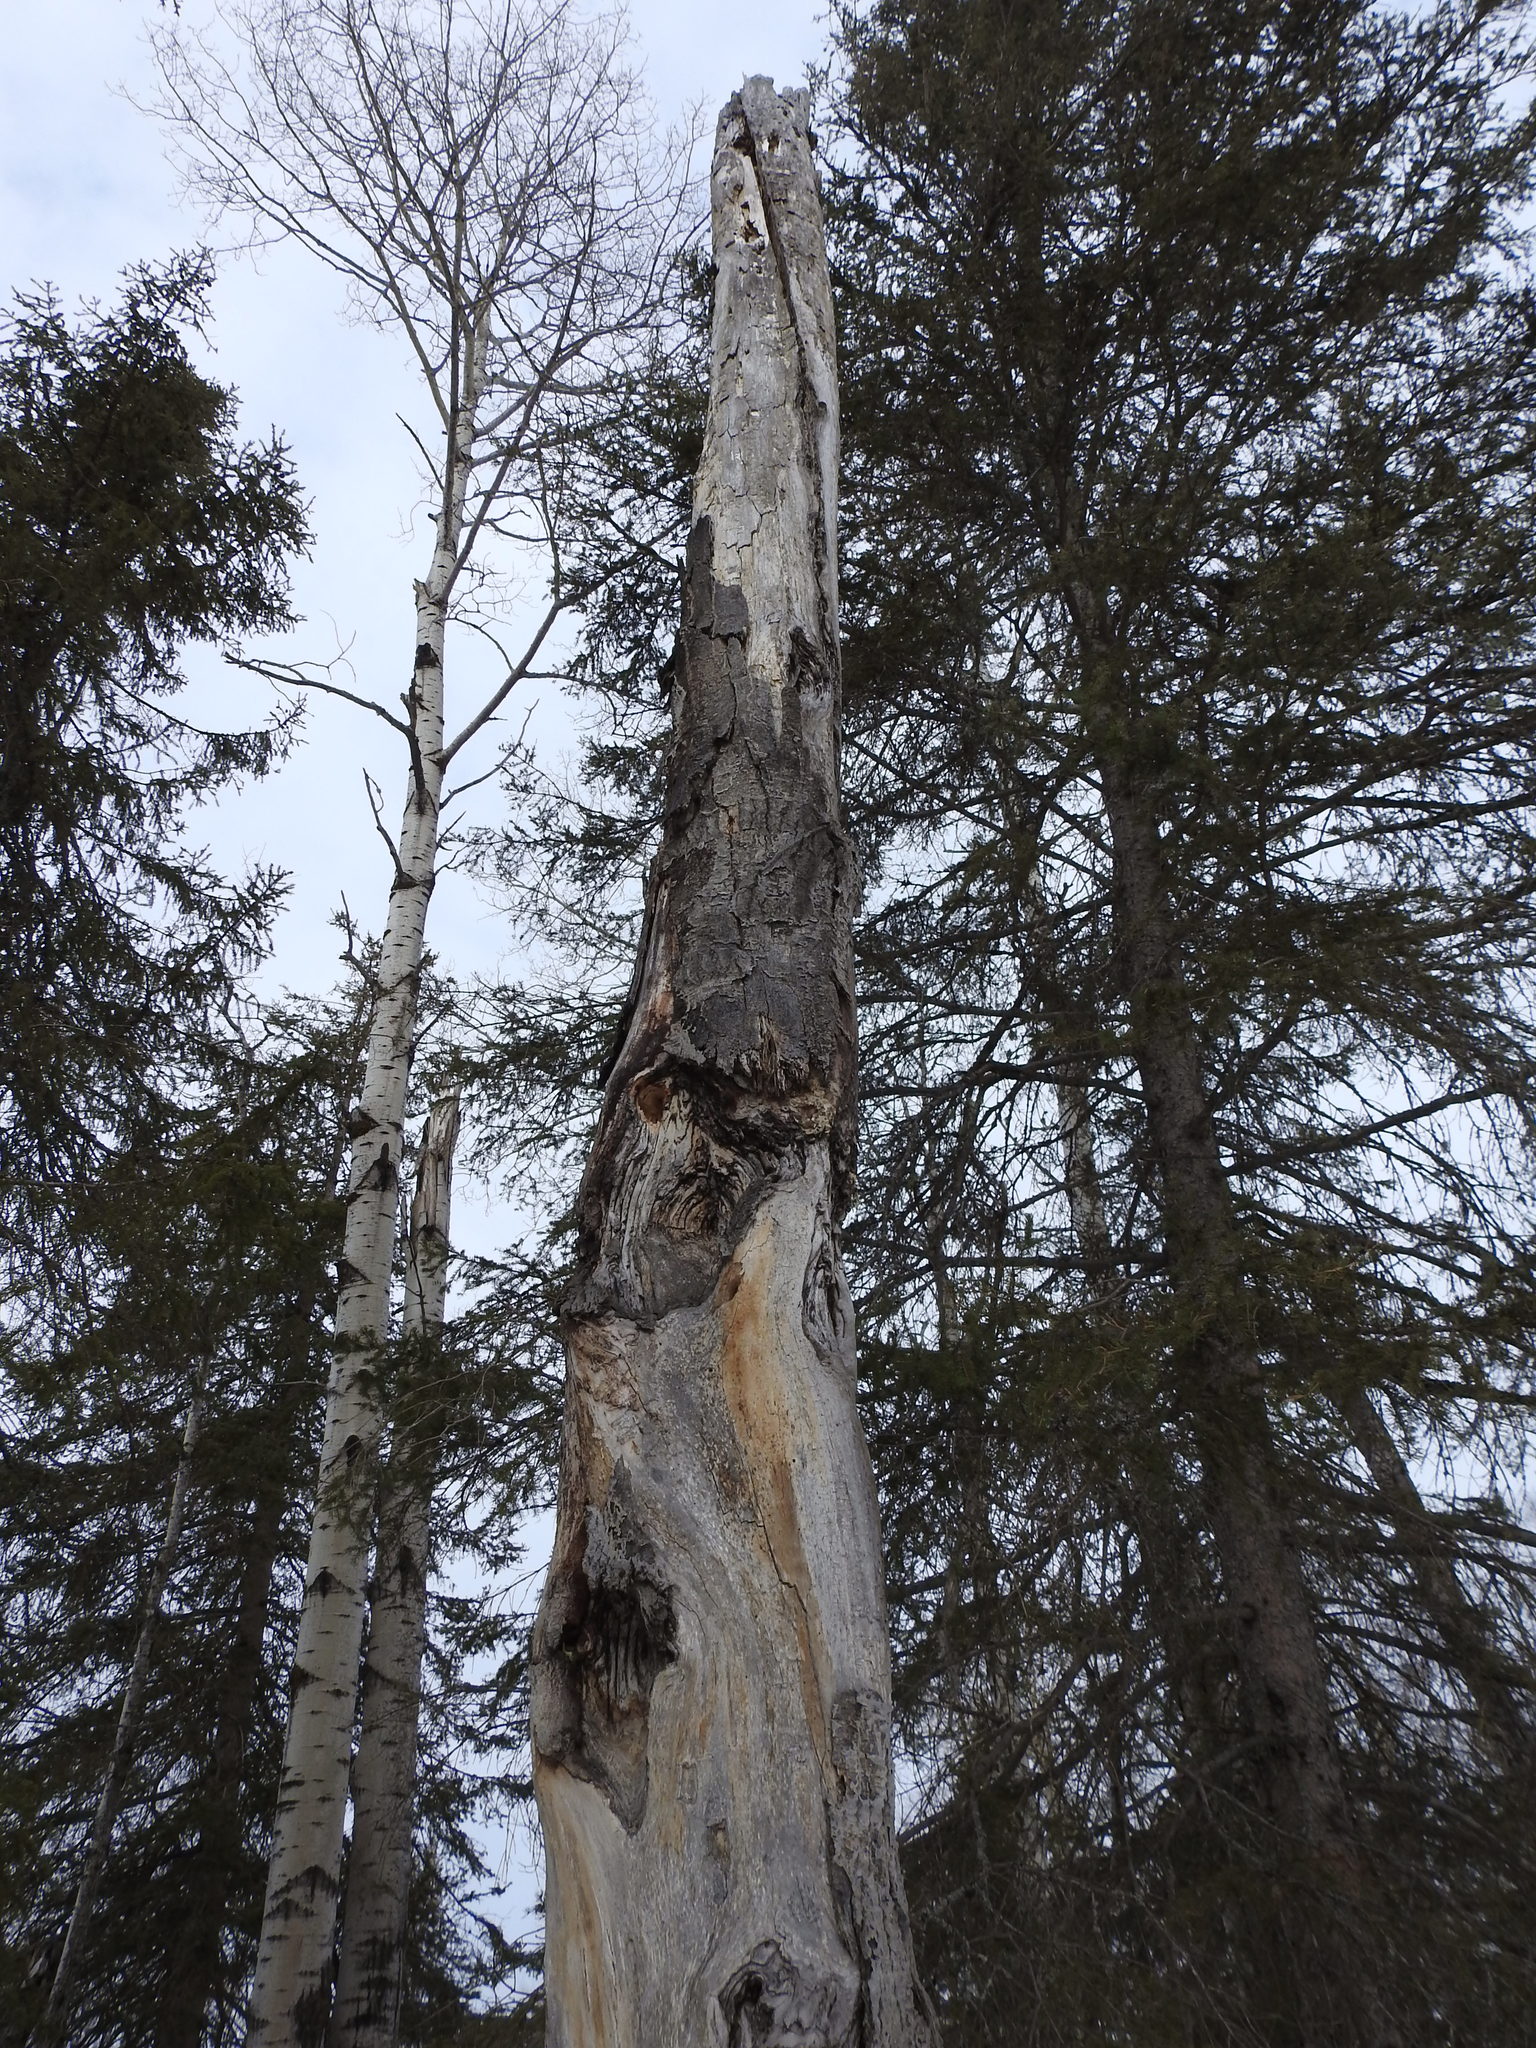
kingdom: Plantae
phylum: Tracheophyta
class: Magnoliopsida
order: Malpighiales
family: Salicaceae
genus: Populus
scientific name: Populus tremuloides
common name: Quaking aspen
